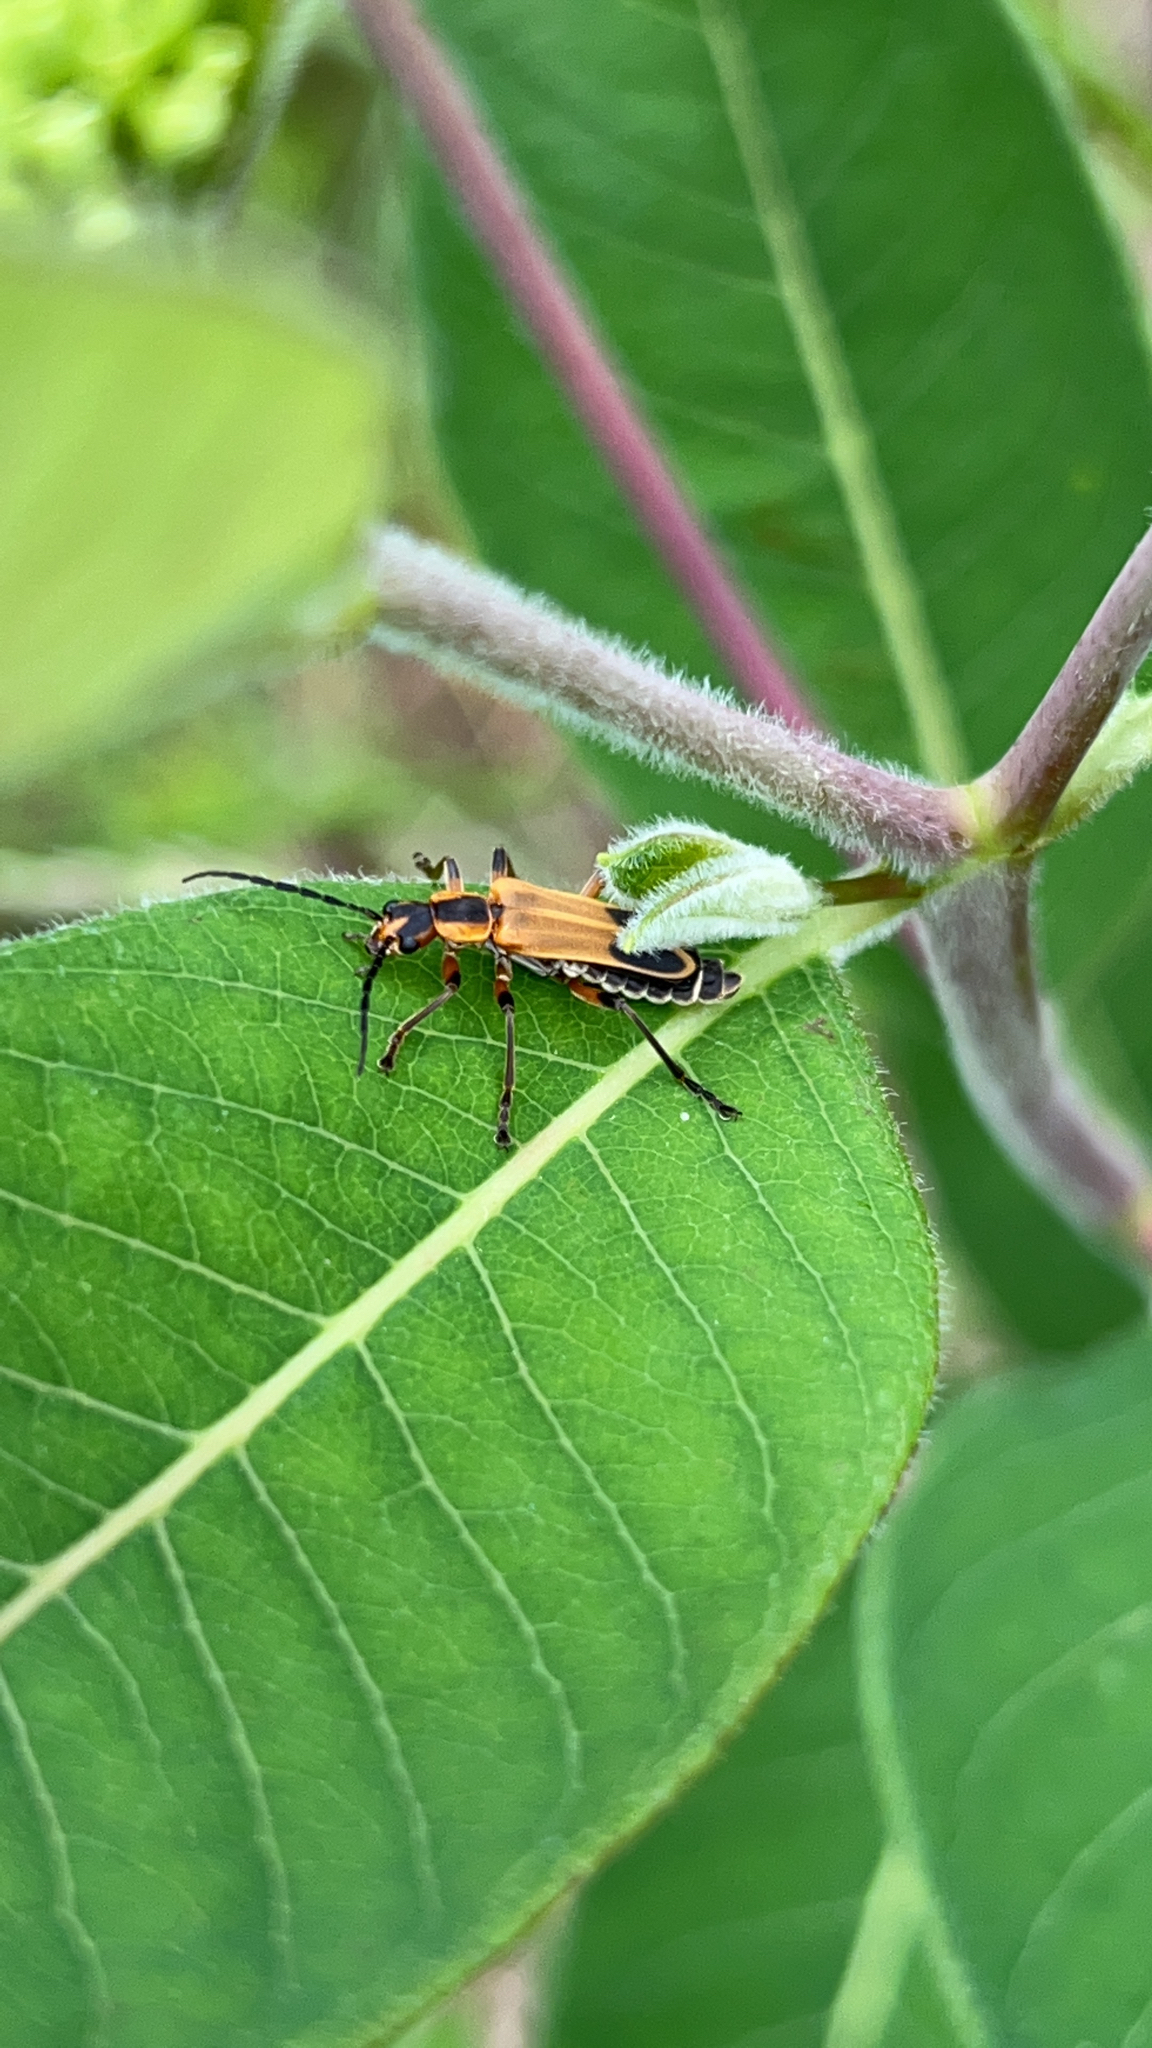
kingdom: Animalia
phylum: Arthropoda
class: Insecta
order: Coleoptera
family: Cantharidae
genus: Chauliognathus
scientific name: Chauliognathus marginatus
